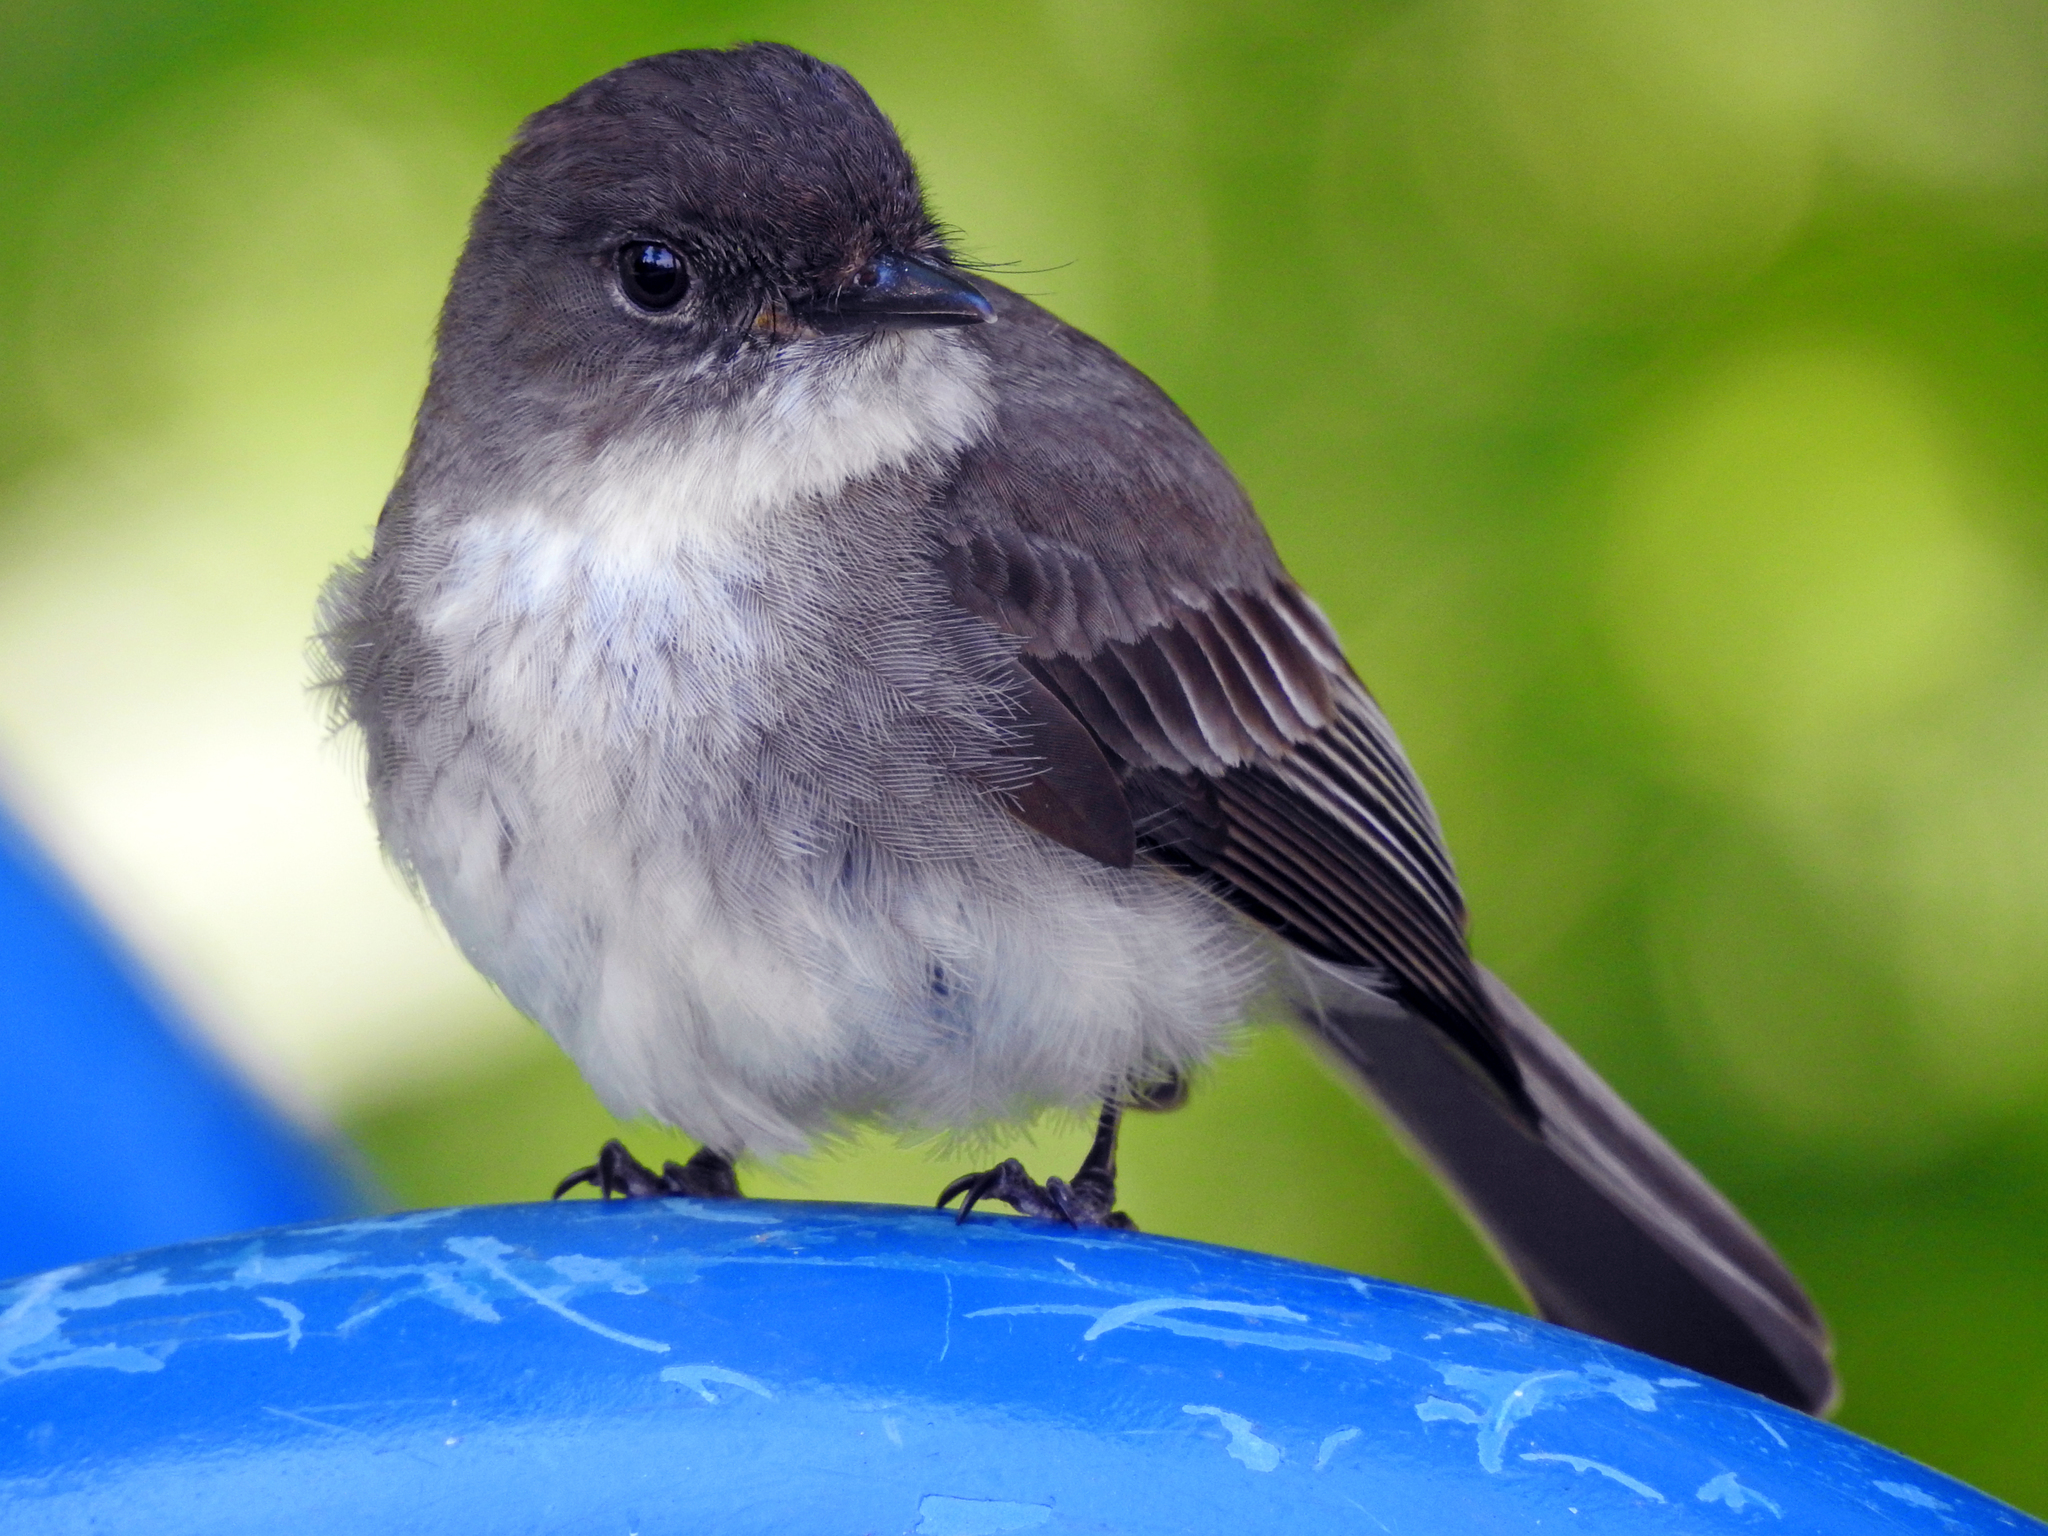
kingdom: Animalia
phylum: Chordata
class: Aves
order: Passeriformes
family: Tyrannidae
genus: Sayornis
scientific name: Sayornis phoebe
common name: Eastern phoebe
